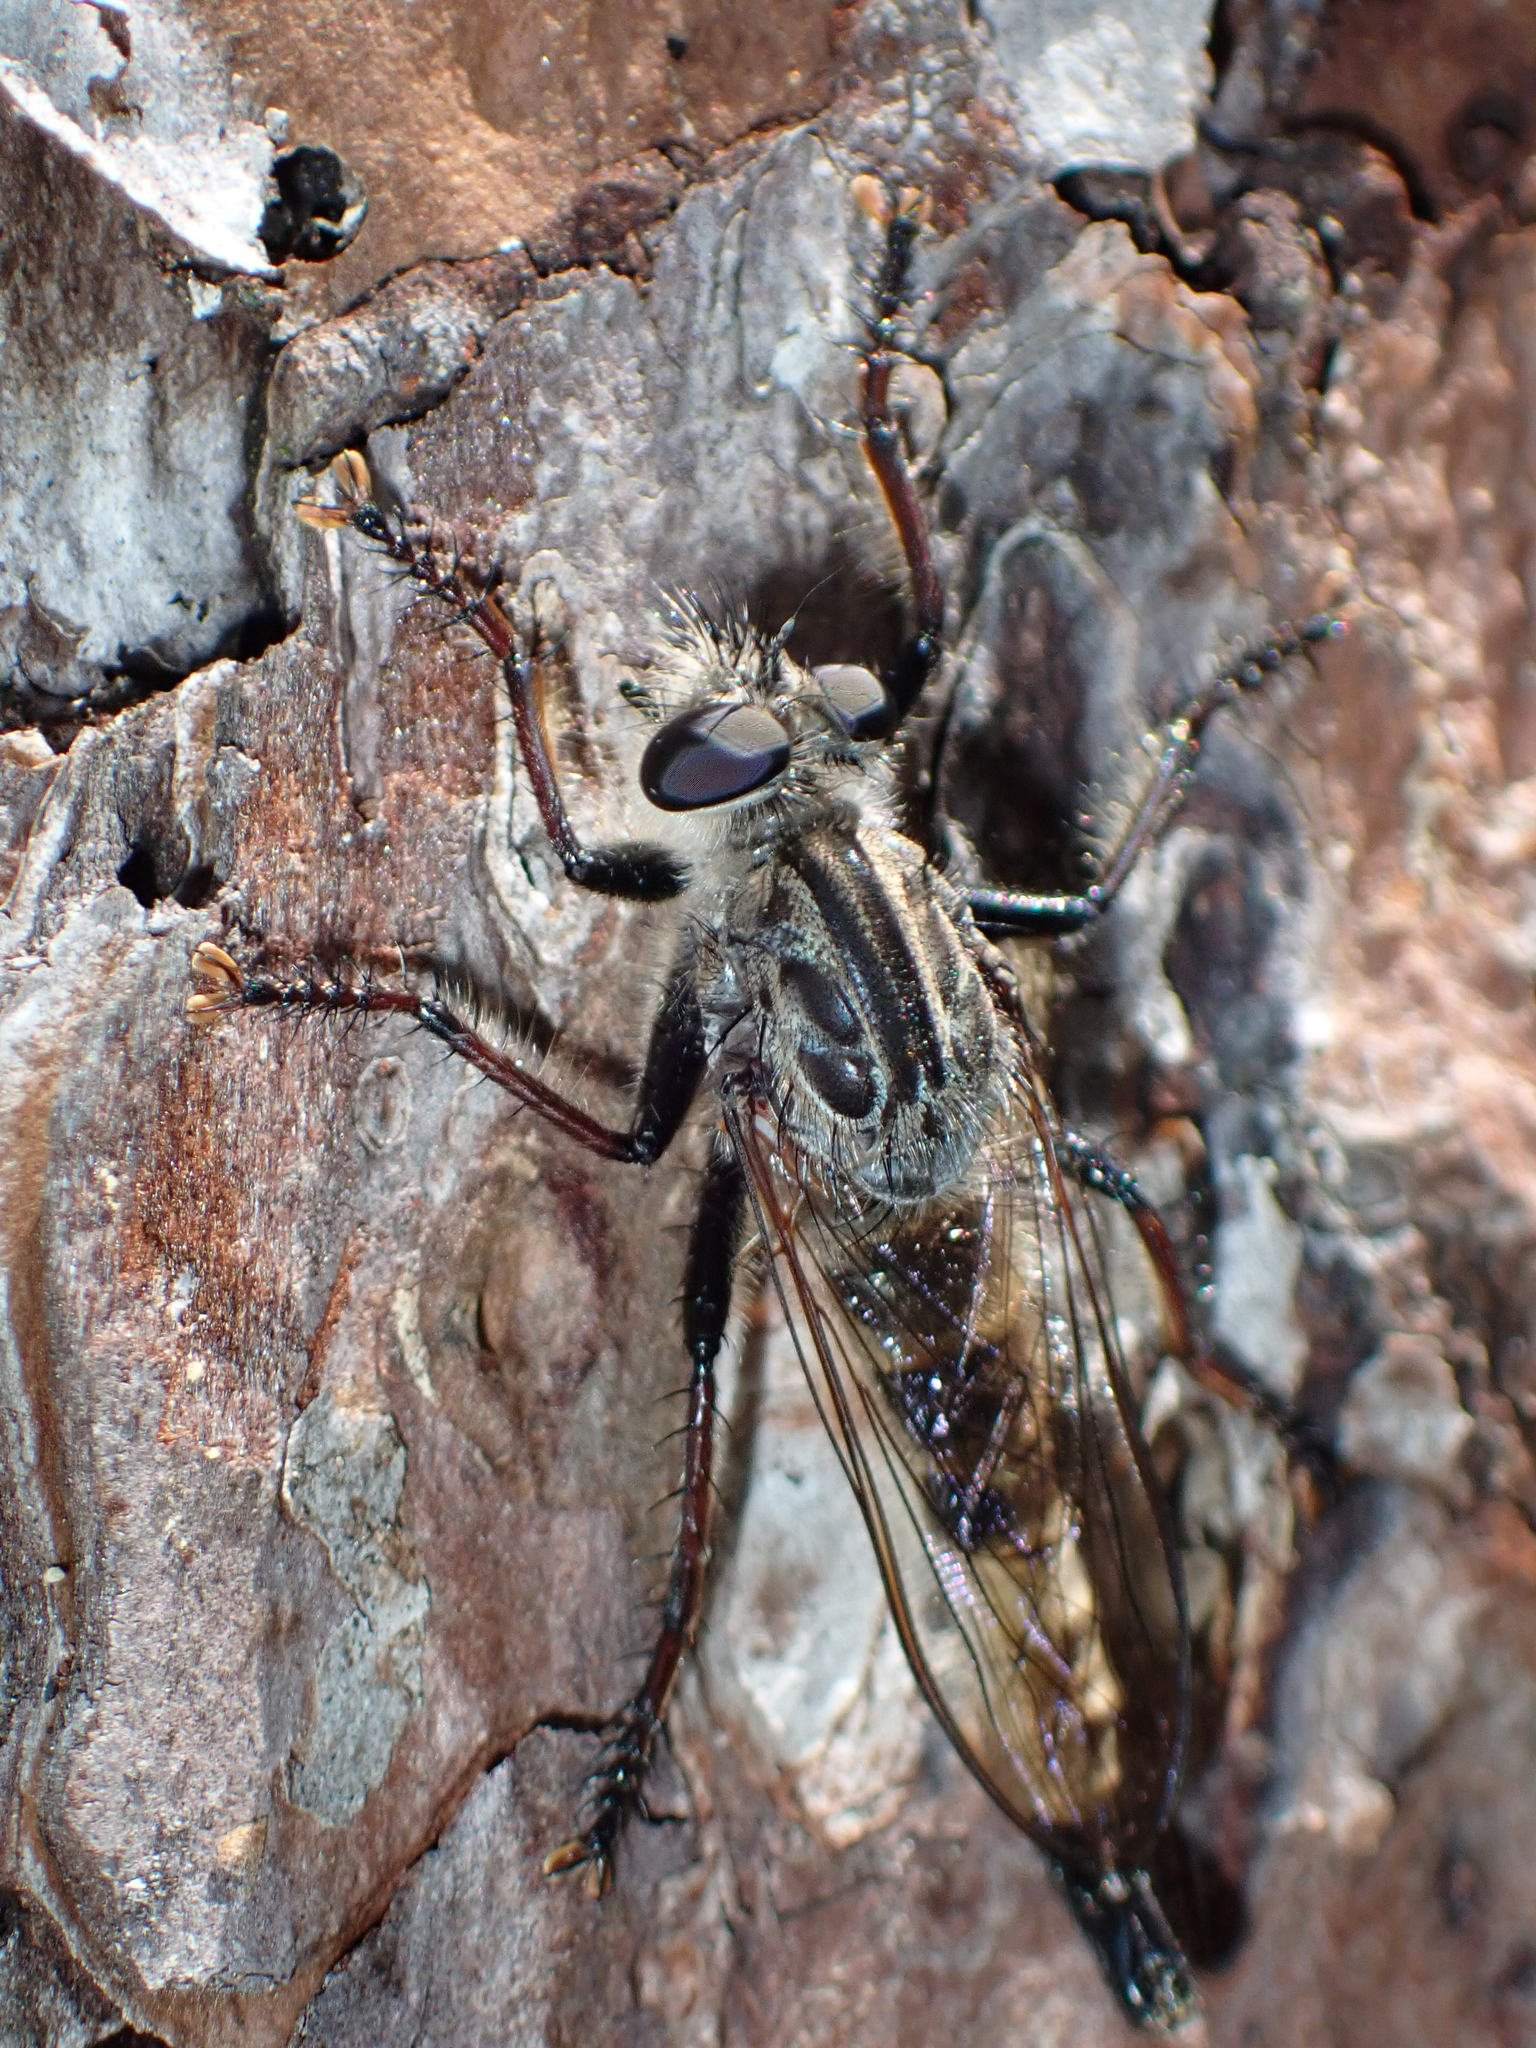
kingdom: Animalia
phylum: Arthropoda
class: Insecta
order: Diptera
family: Asilidae
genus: Efferia
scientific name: Efferia femorata
